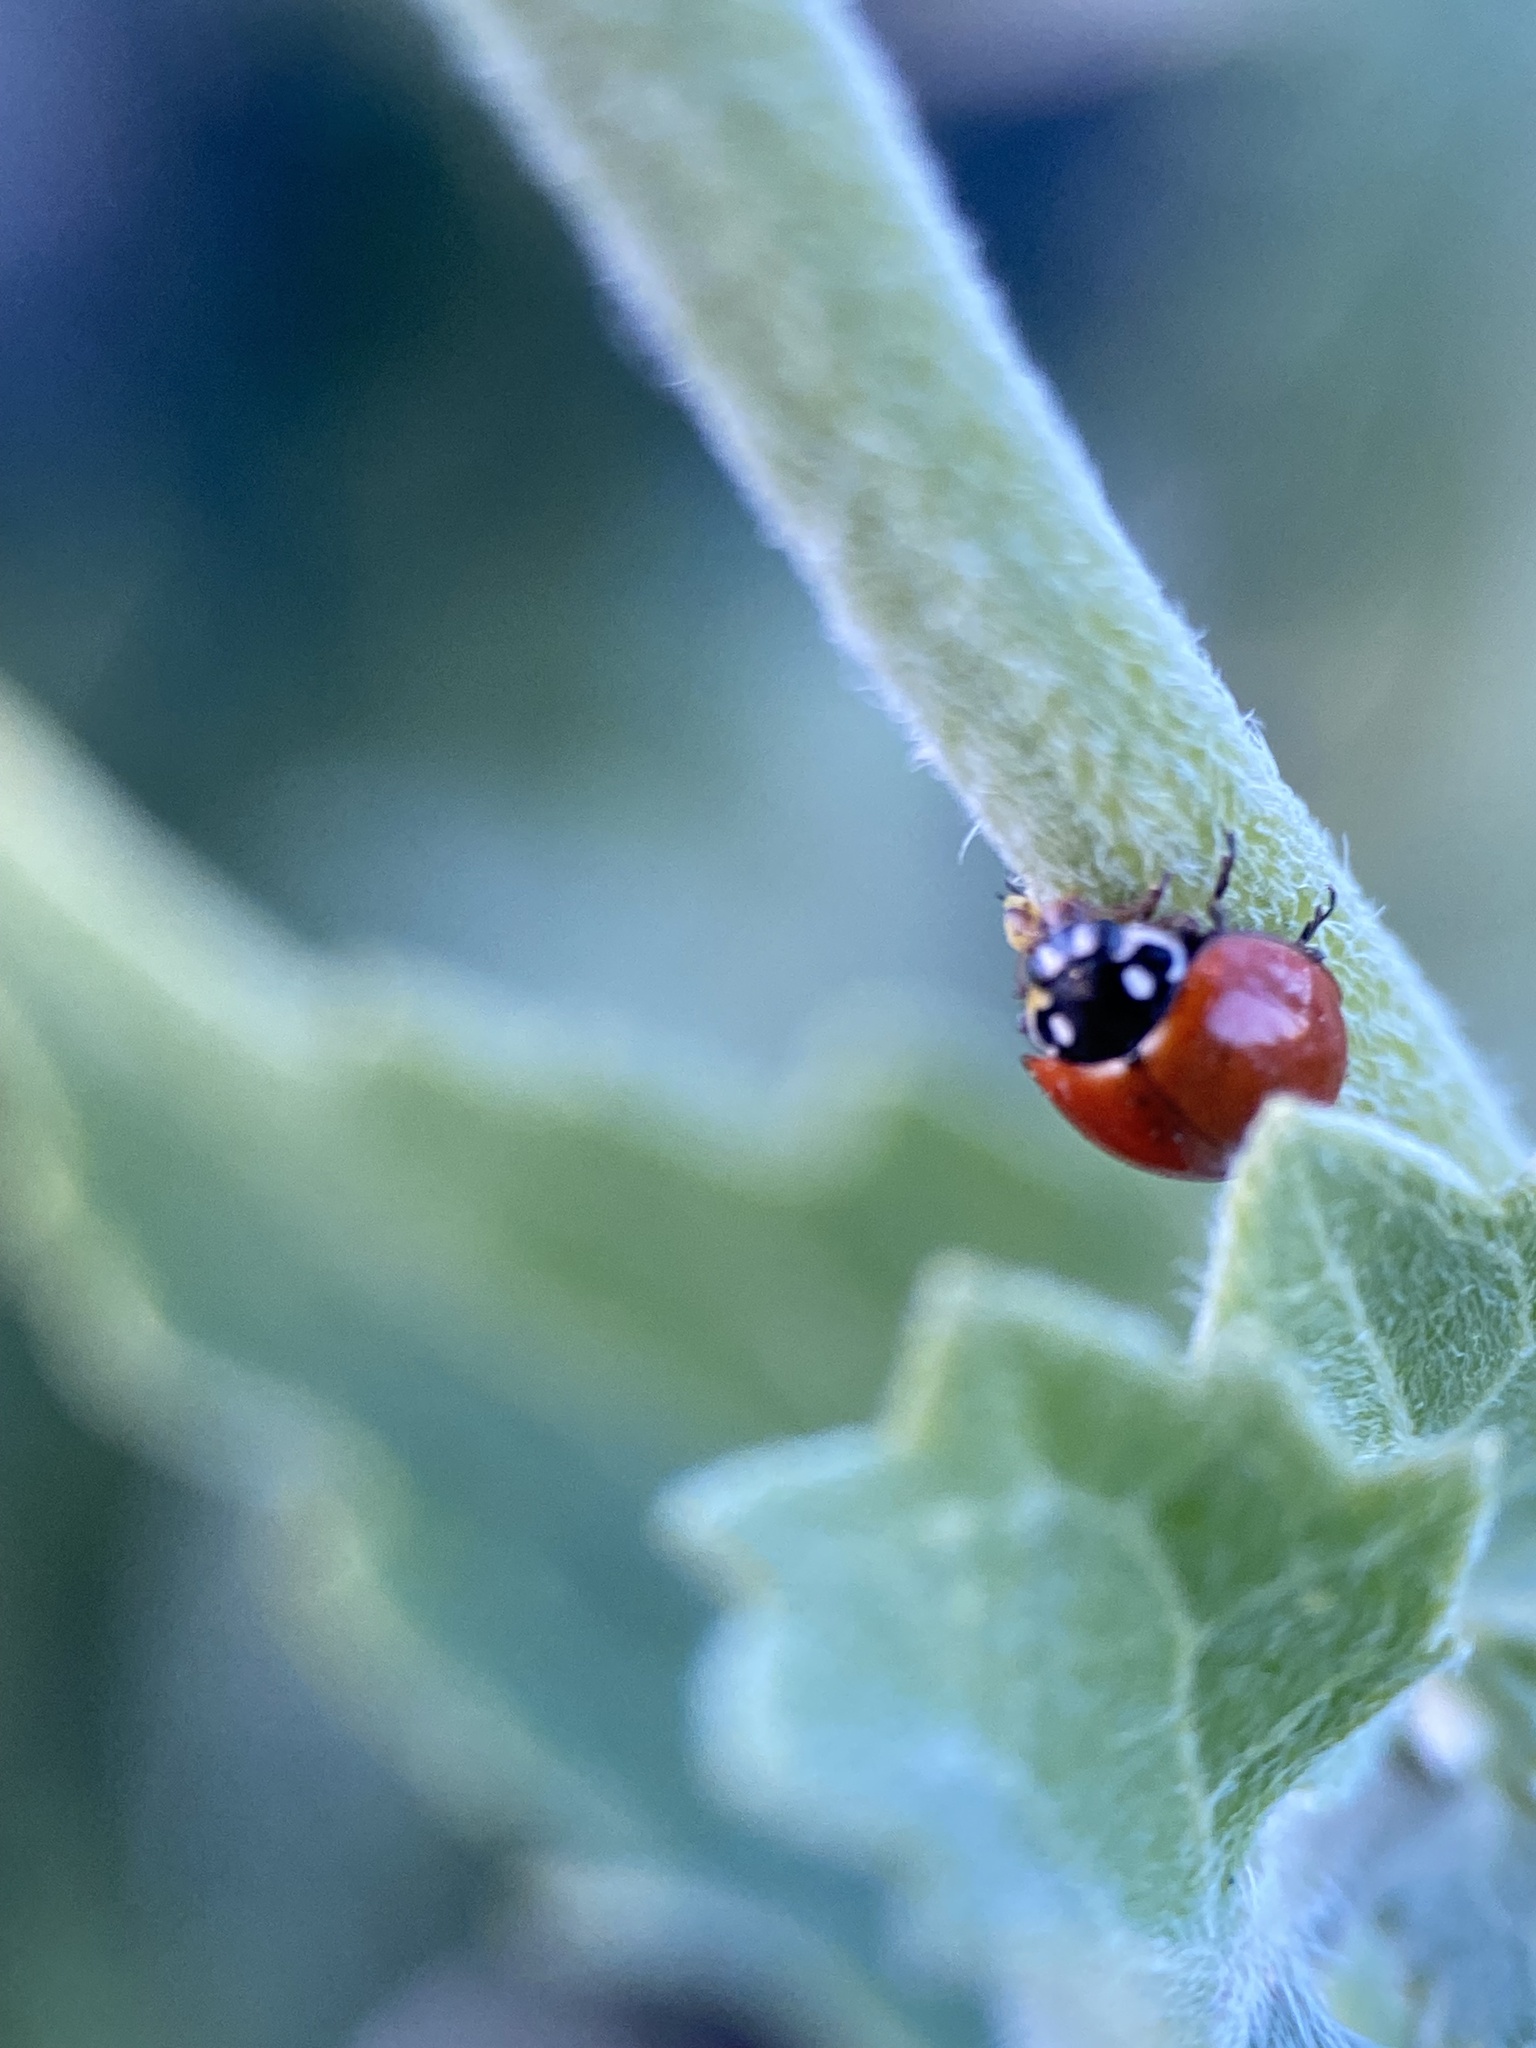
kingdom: Animalia
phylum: Arthropoda
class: Insecta
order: Coleoptera
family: Coccinellidae
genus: Cycloneda
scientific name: Cycloneda sanguinea
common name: Ladybird beetle
